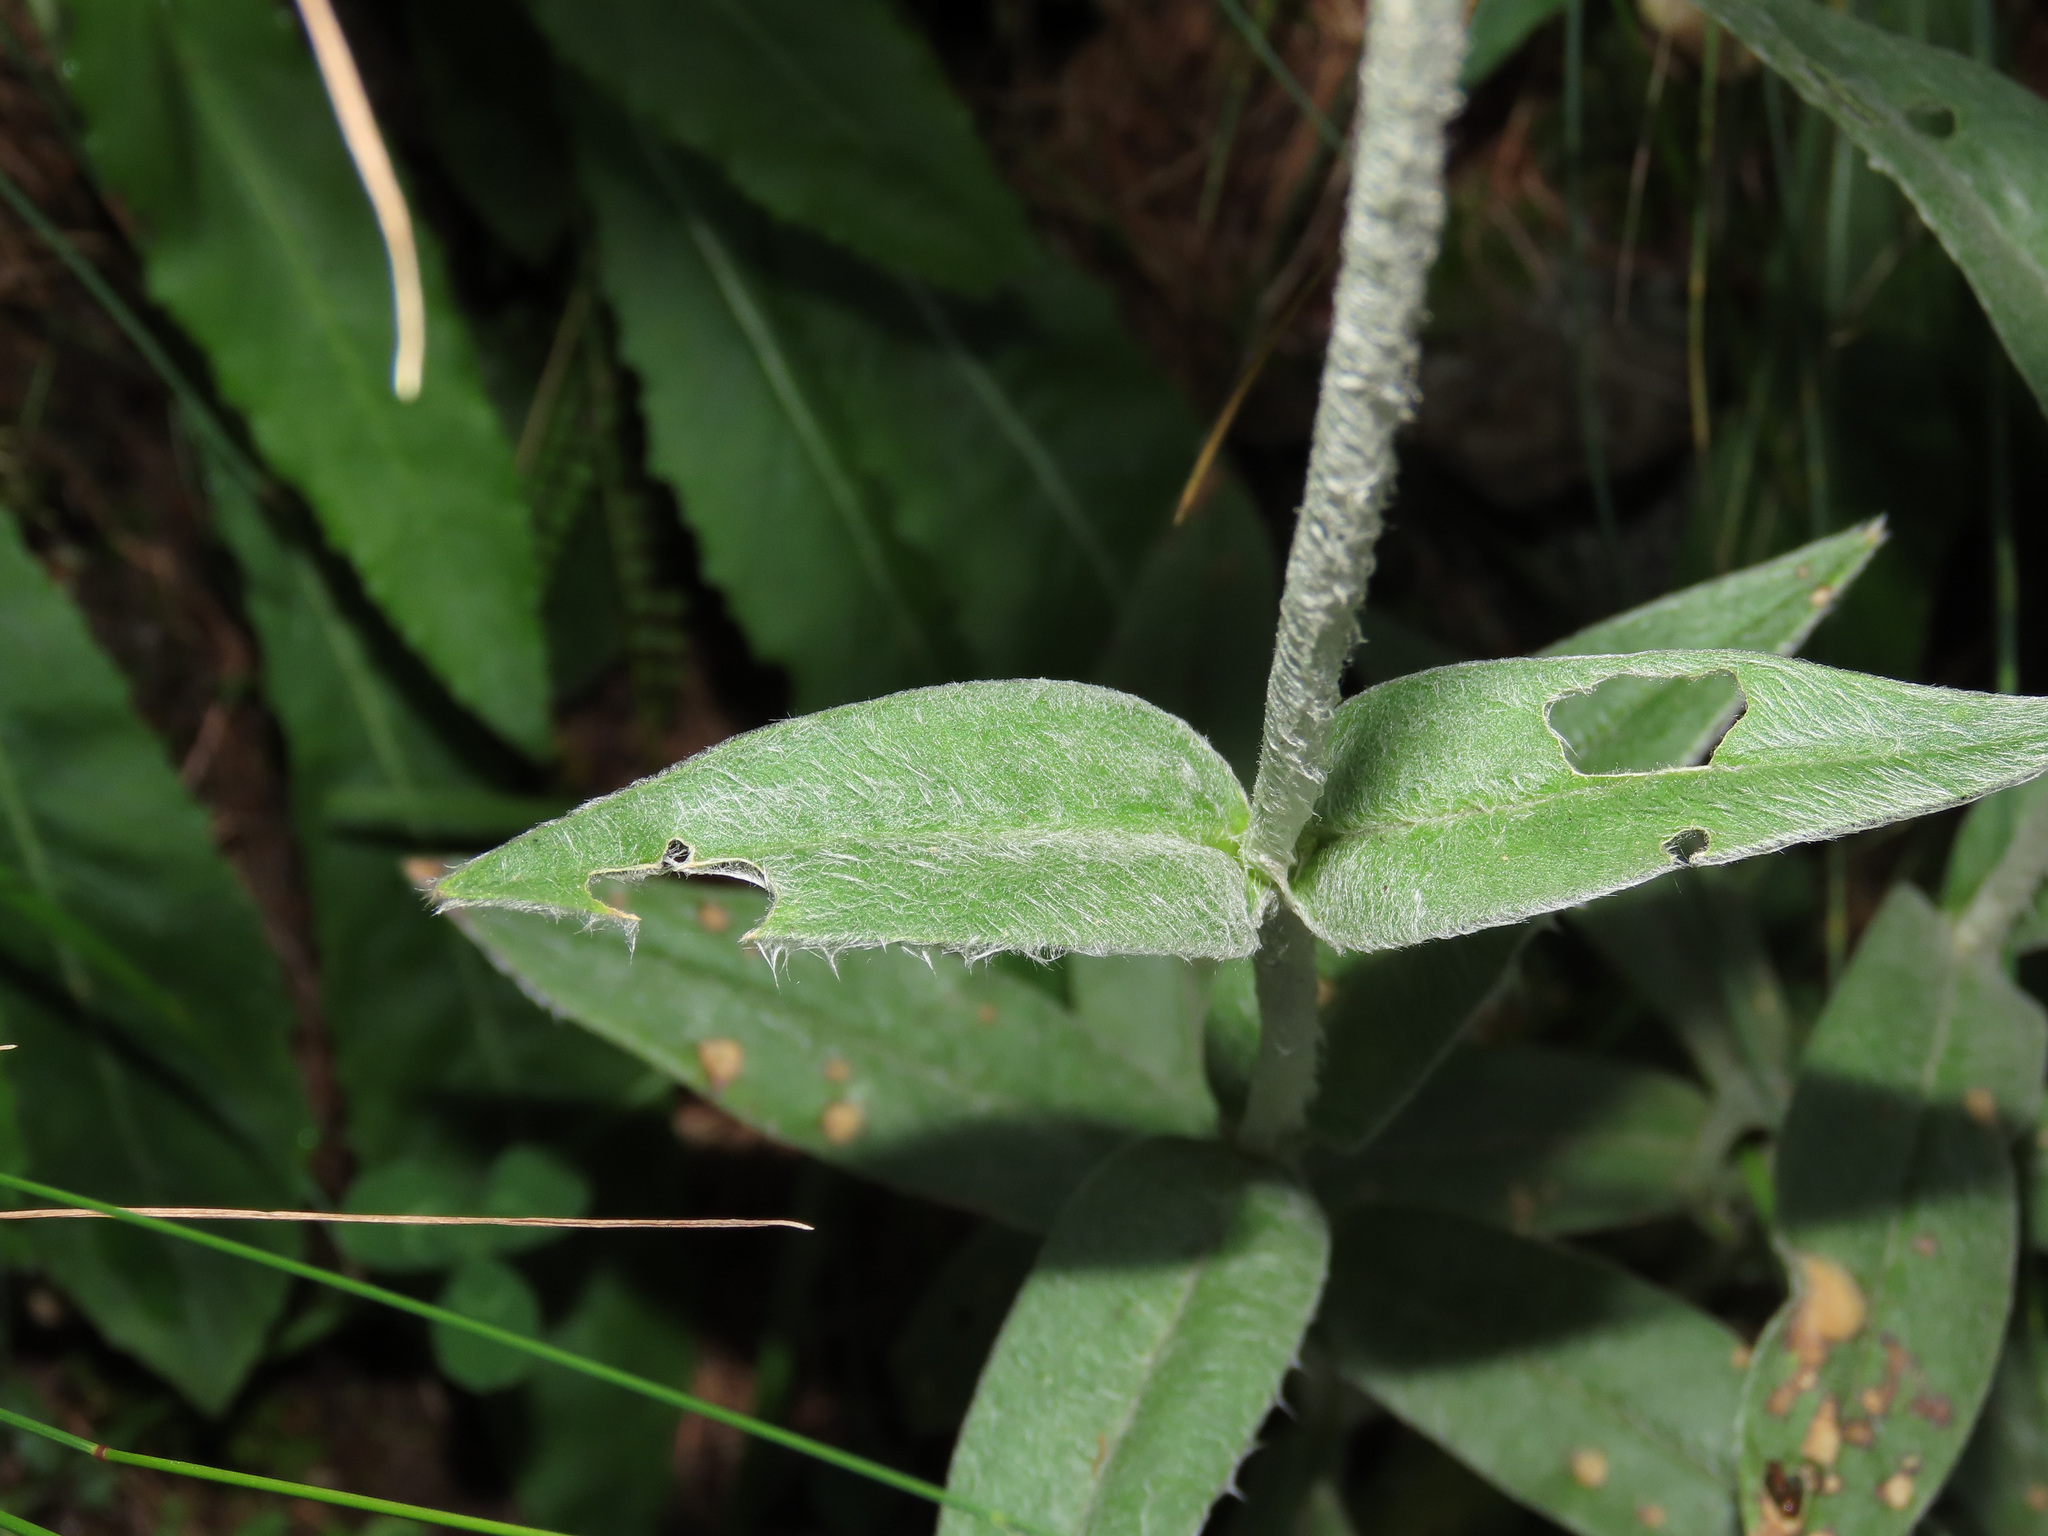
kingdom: Plantae
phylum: Tracheophyta
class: Magnoliopsida
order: Caryophyllales
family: Caryophyllaceae
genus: Silene
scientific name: Silene flos-jovis
